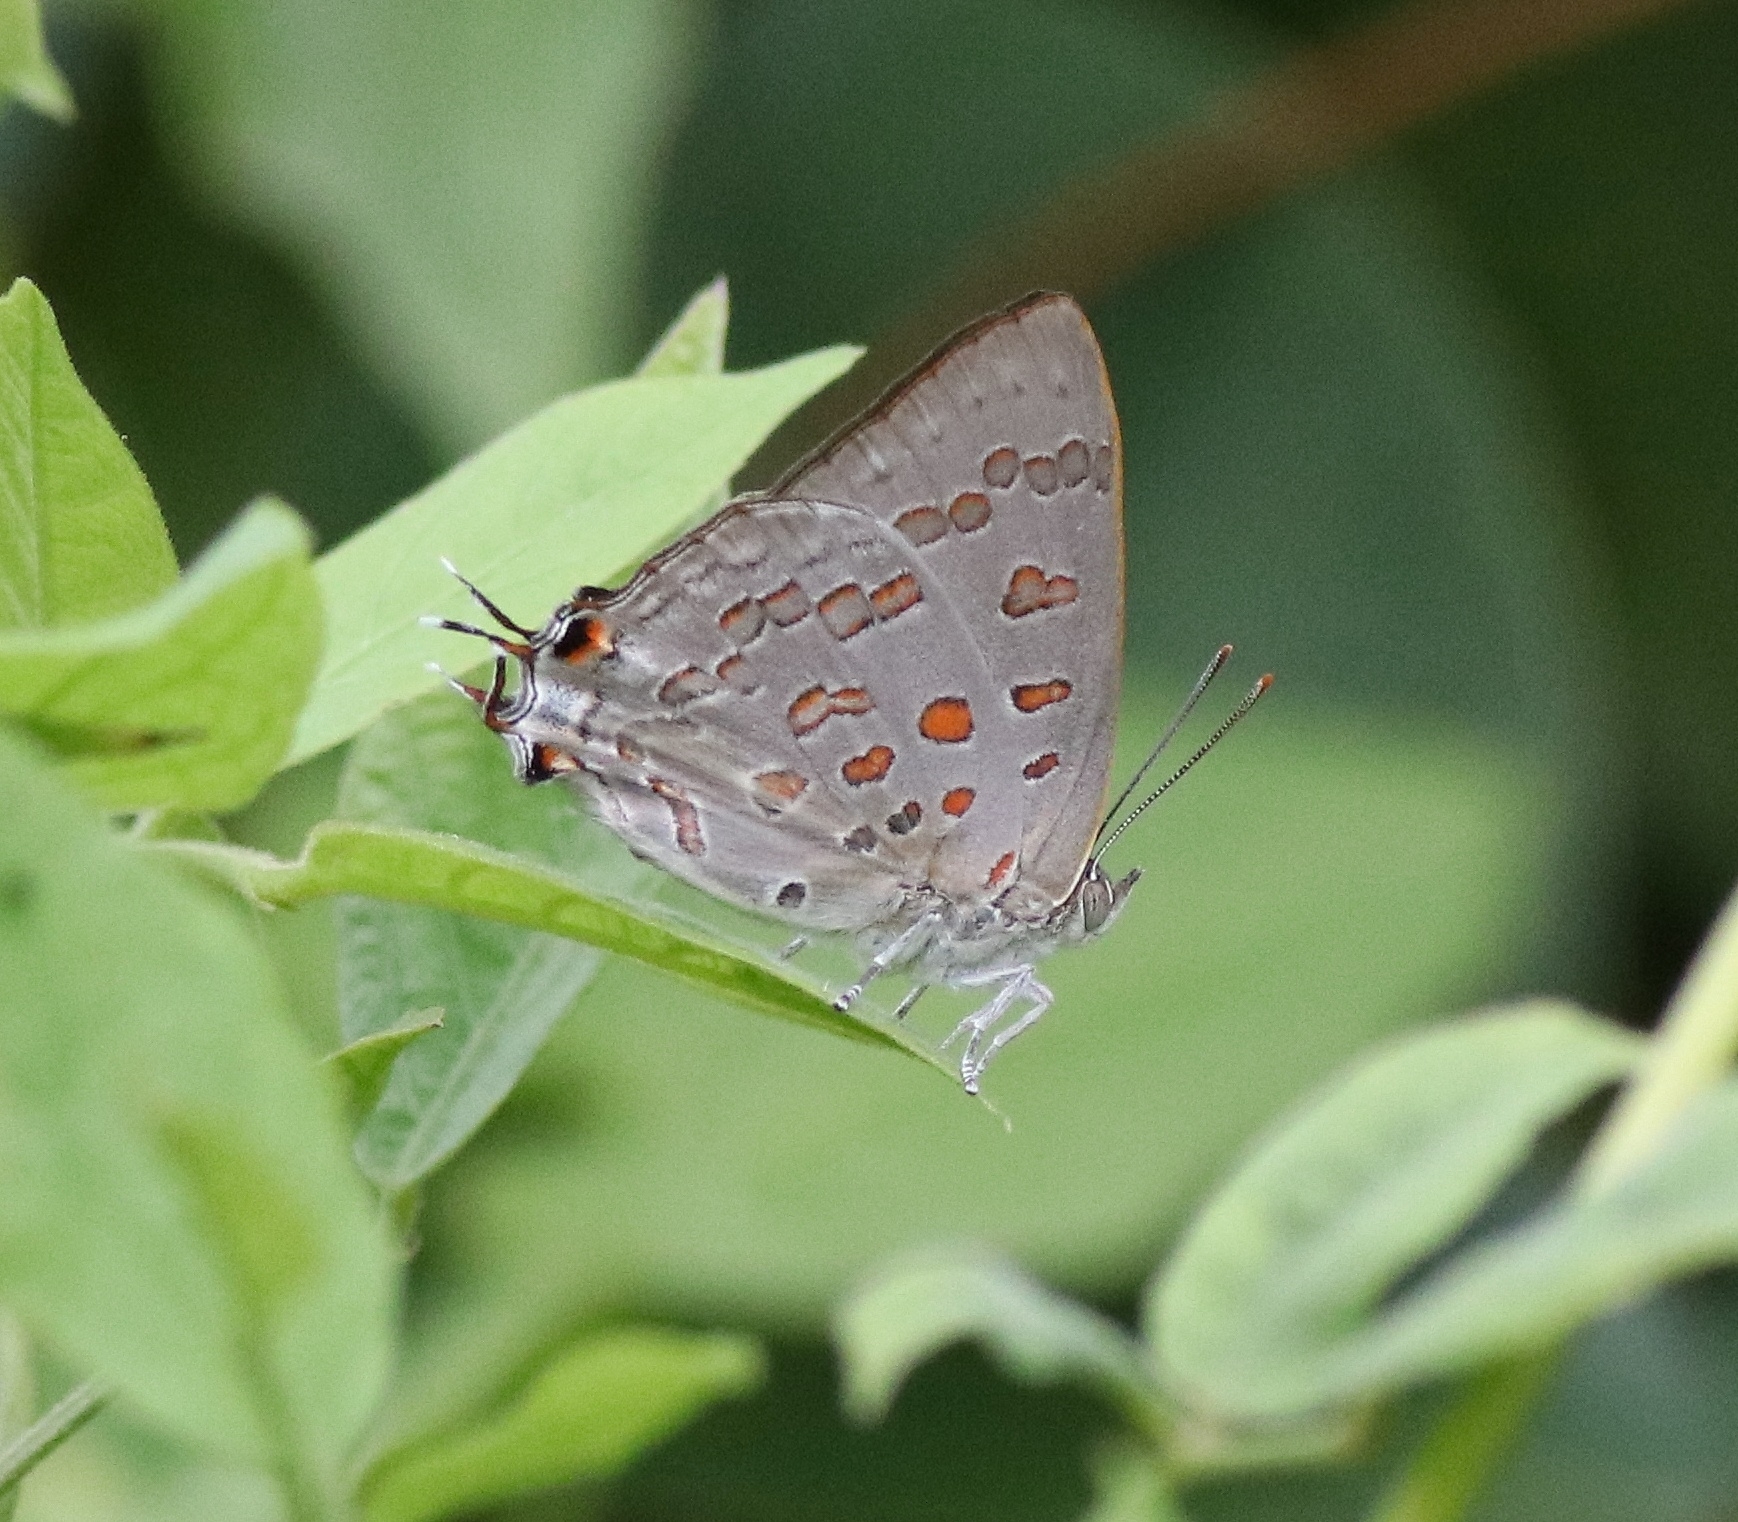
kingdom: Animalia
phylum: Arthropoda
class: Insecta
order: Lepidoptera
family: Lycaenidae
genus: Zesius
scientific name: Zesius chrysomallus
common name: Redspot
